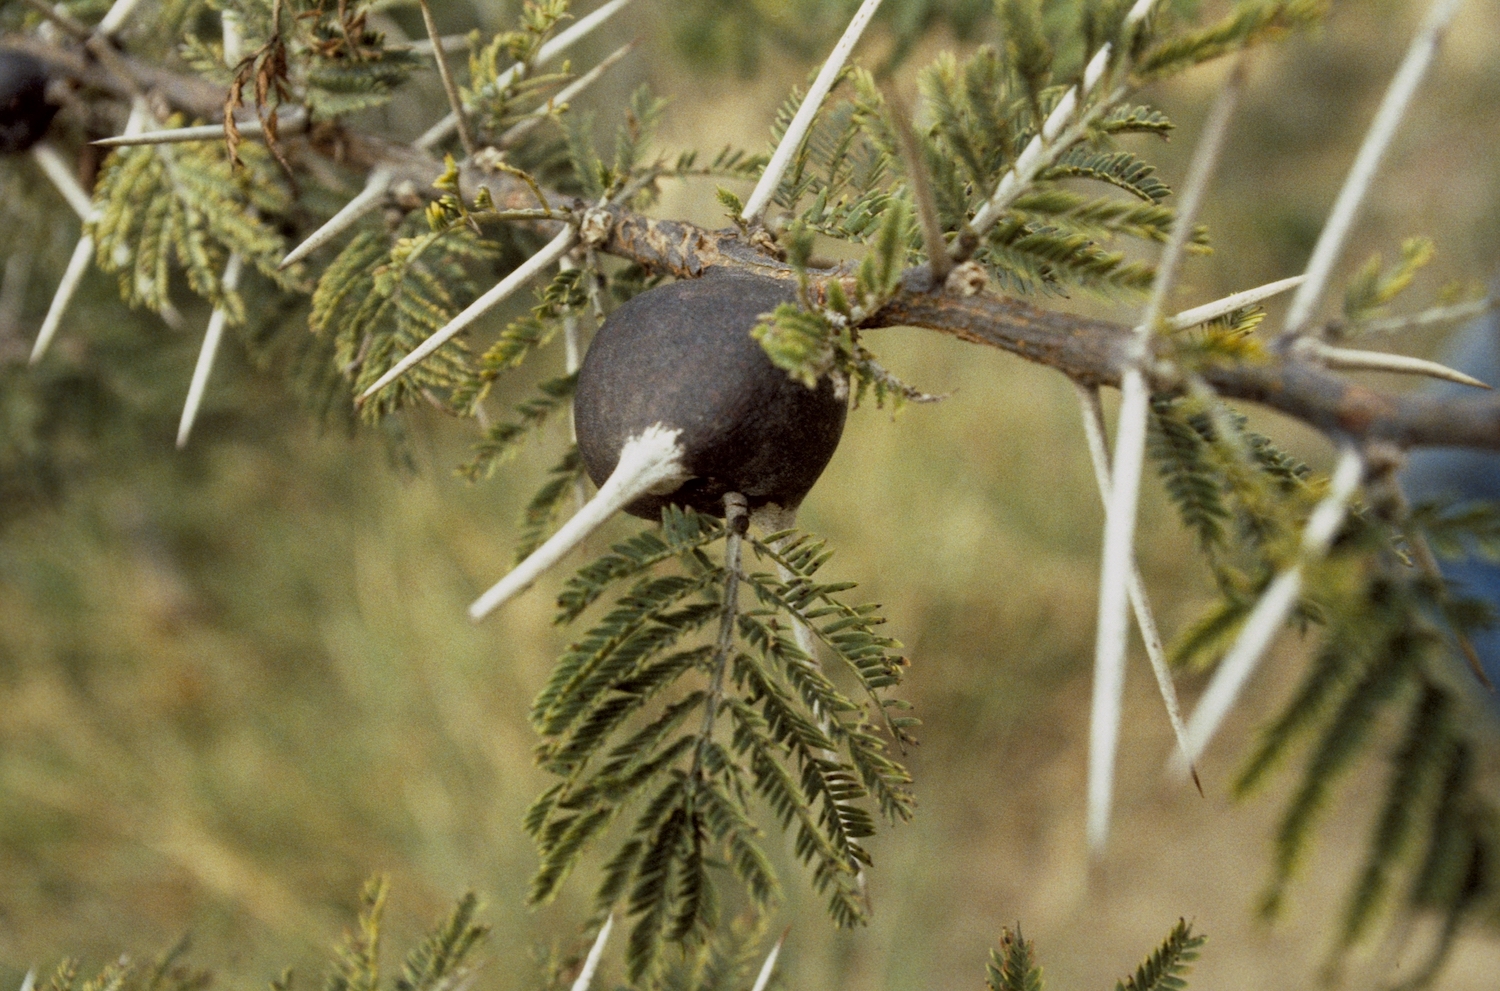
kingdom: Plantae
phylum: Tracheophyta
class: Magnoliopsida
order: Fabales
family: Fabaceae
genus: Vachellia
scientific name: Vachellia drepanolobium
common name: Whistling thorn
